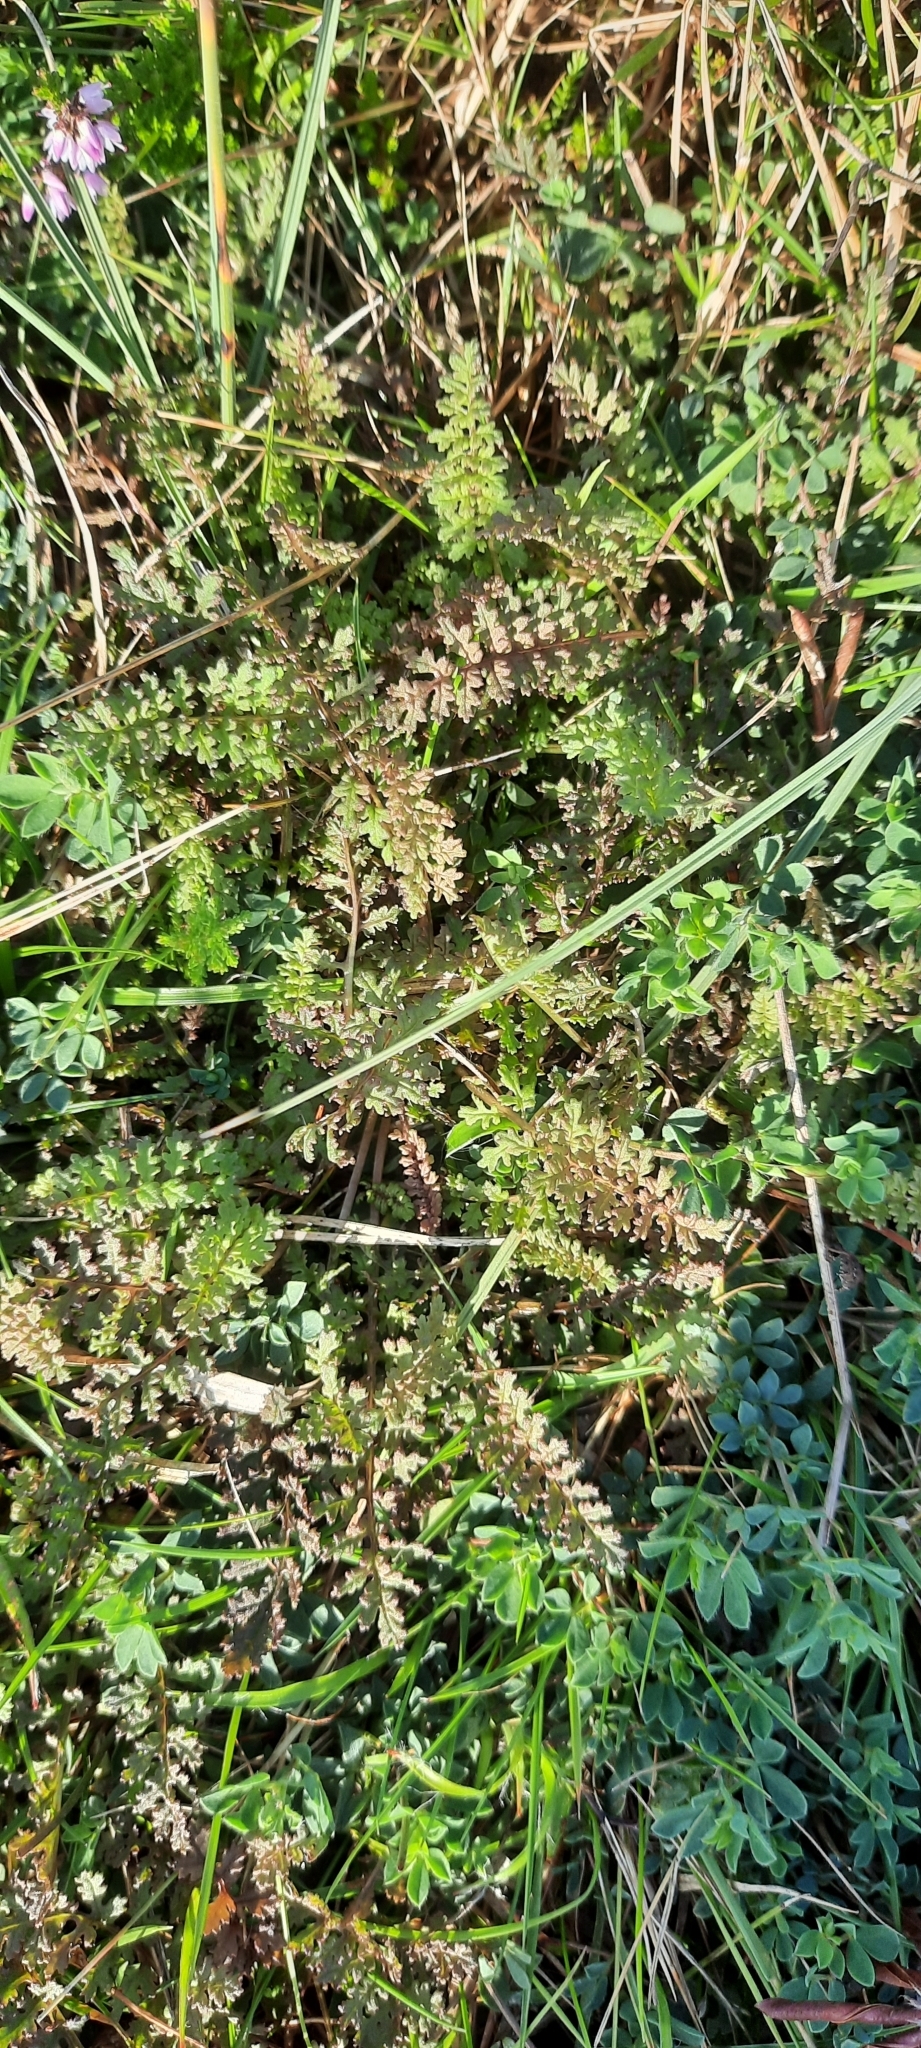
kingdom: Plantae
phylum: Tracheophyta
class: Magnoliopsida
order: Lamiales
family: Orobanchaceae
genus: Pedicularis
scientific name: Pedicularis sylvatica
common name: Lousewort
